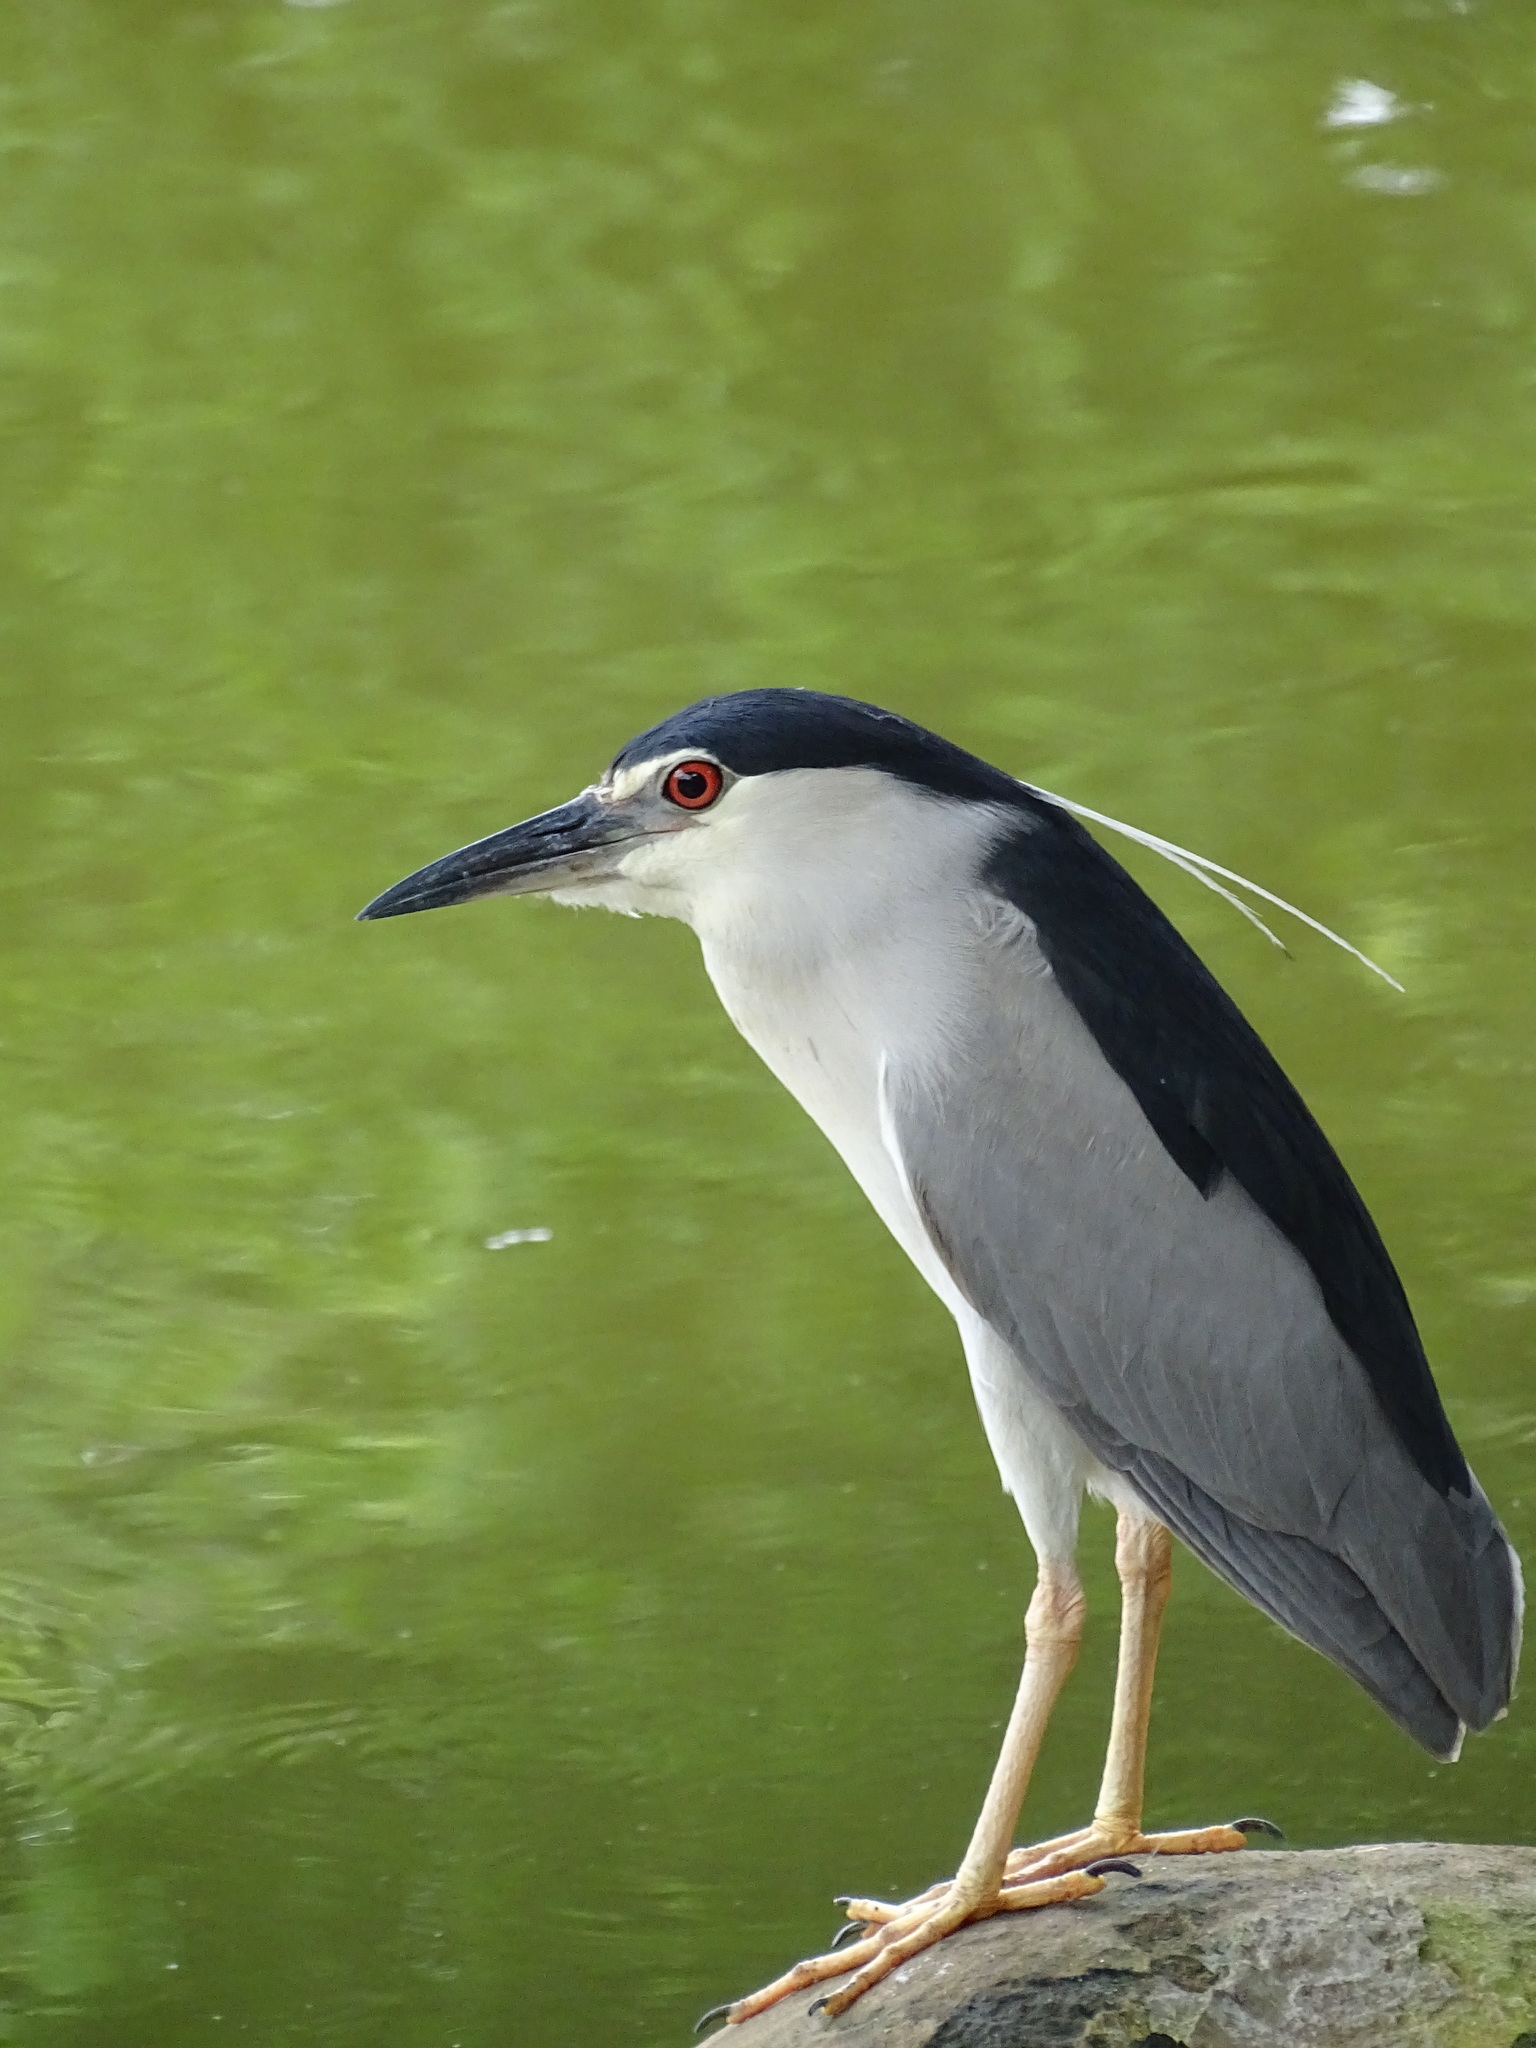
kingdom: Animalia
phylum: Chordata
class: Aves
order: Pelecaniformes
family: Ardeidae
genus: Nycticorax
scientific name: Nycticorax nycticorax
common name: Black-crowned night heron
